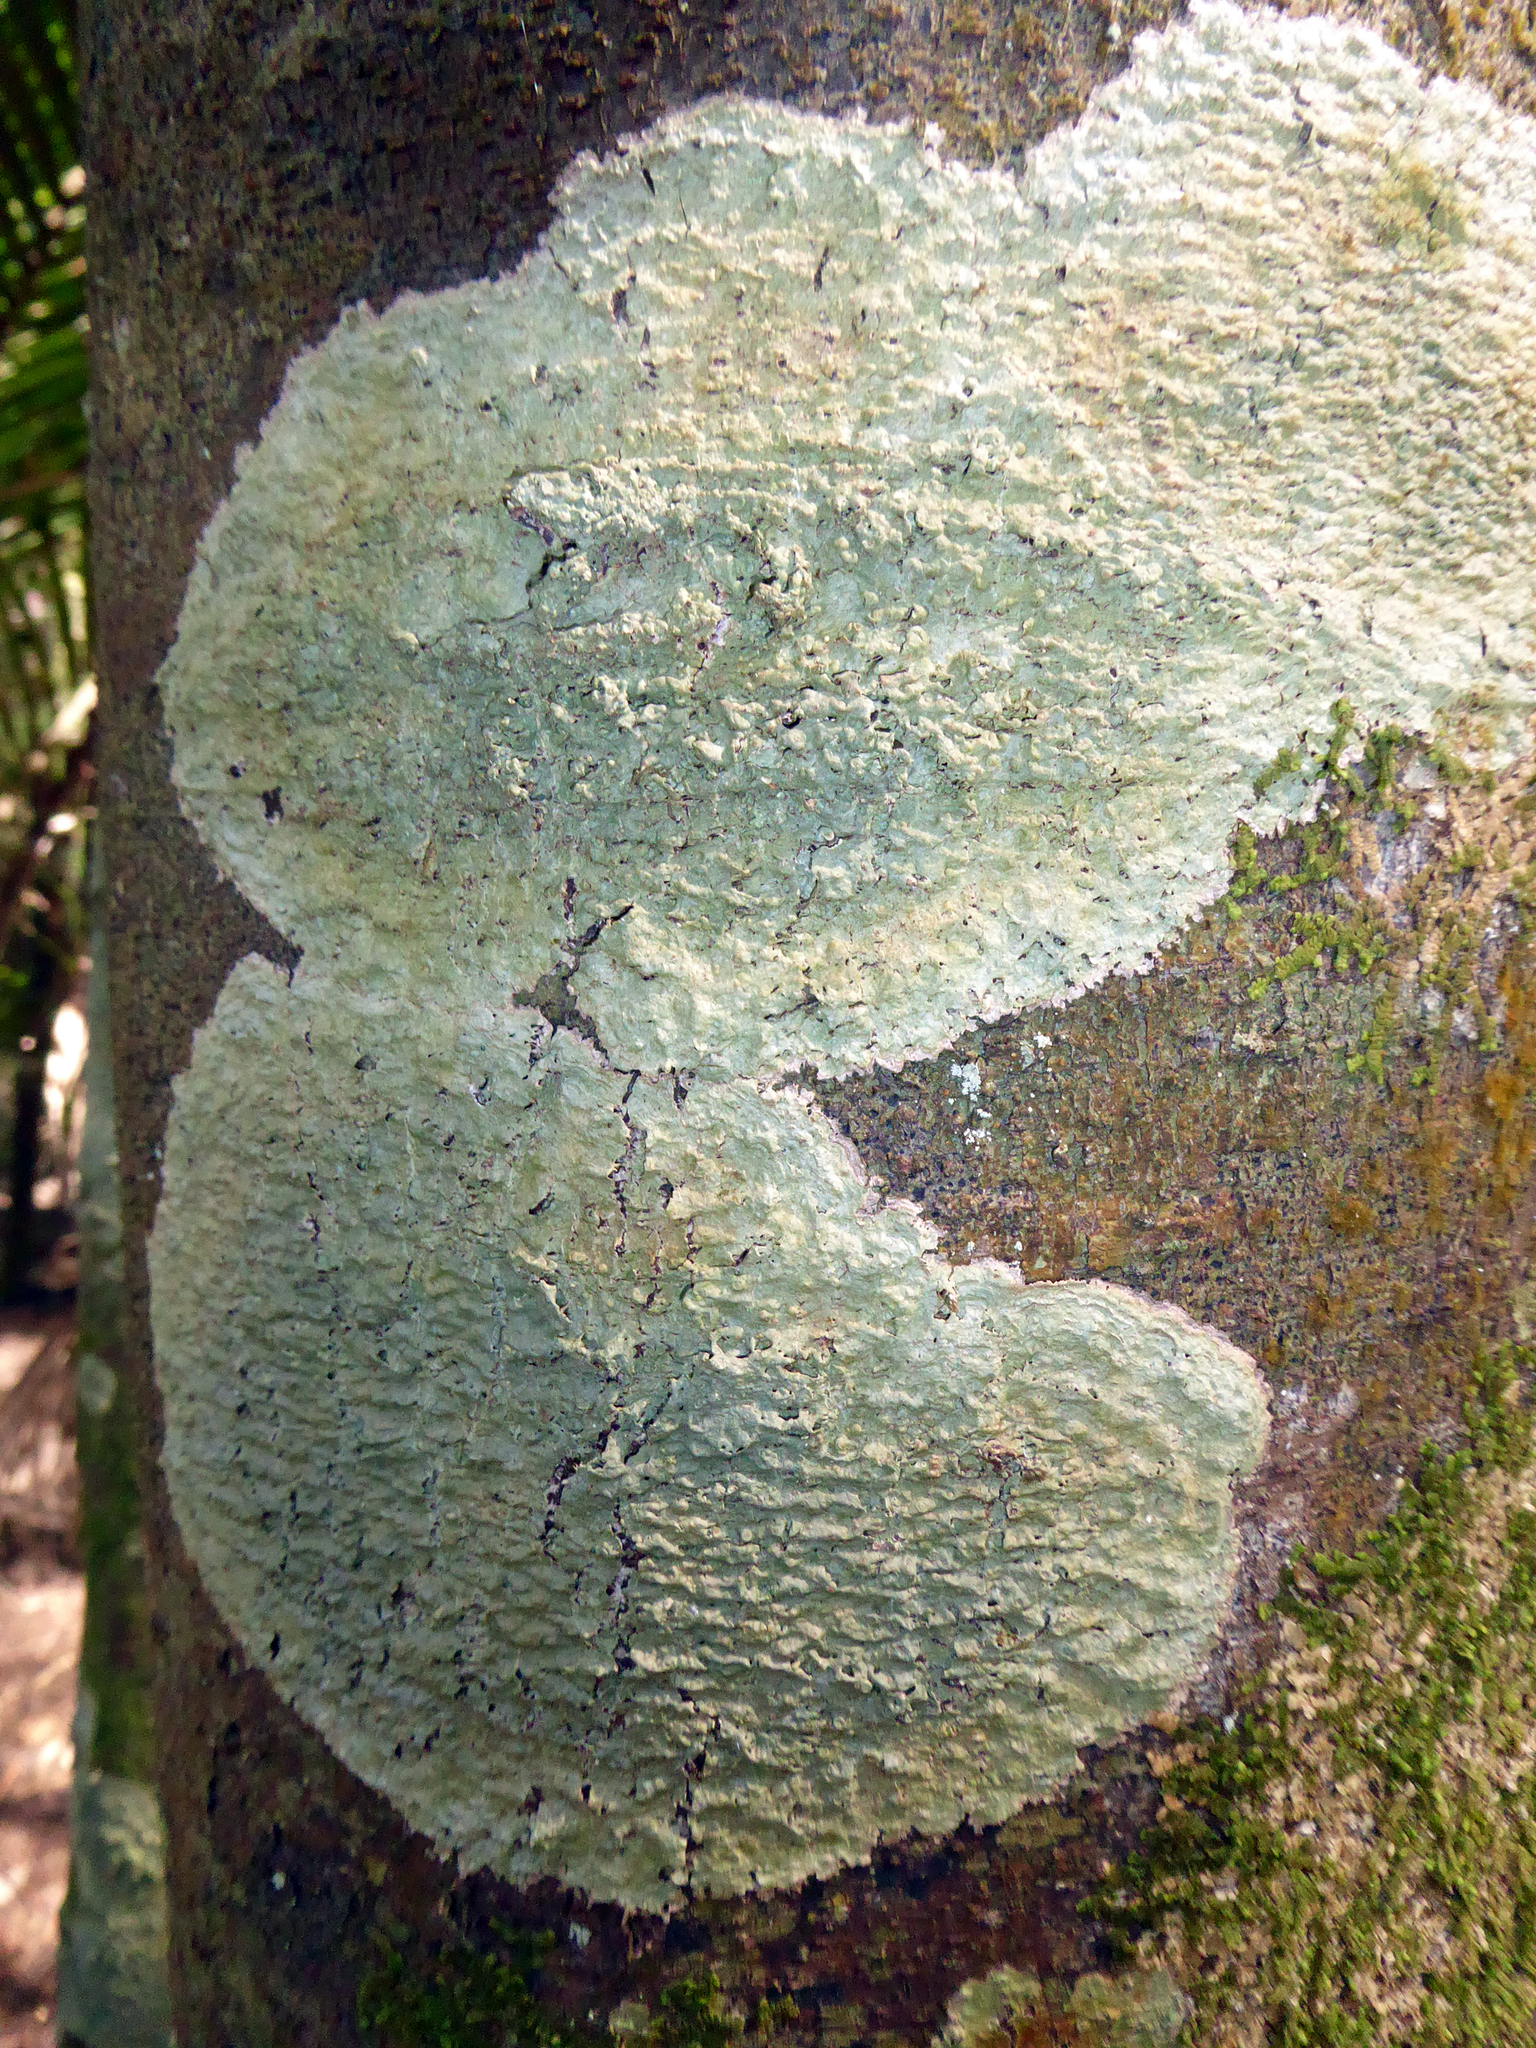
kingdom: Fungi
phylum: Ascomycota
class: Lecanoromycetes
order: Pertusariales
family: Pertusariaceae
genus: Porina
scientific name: Porina exocha
